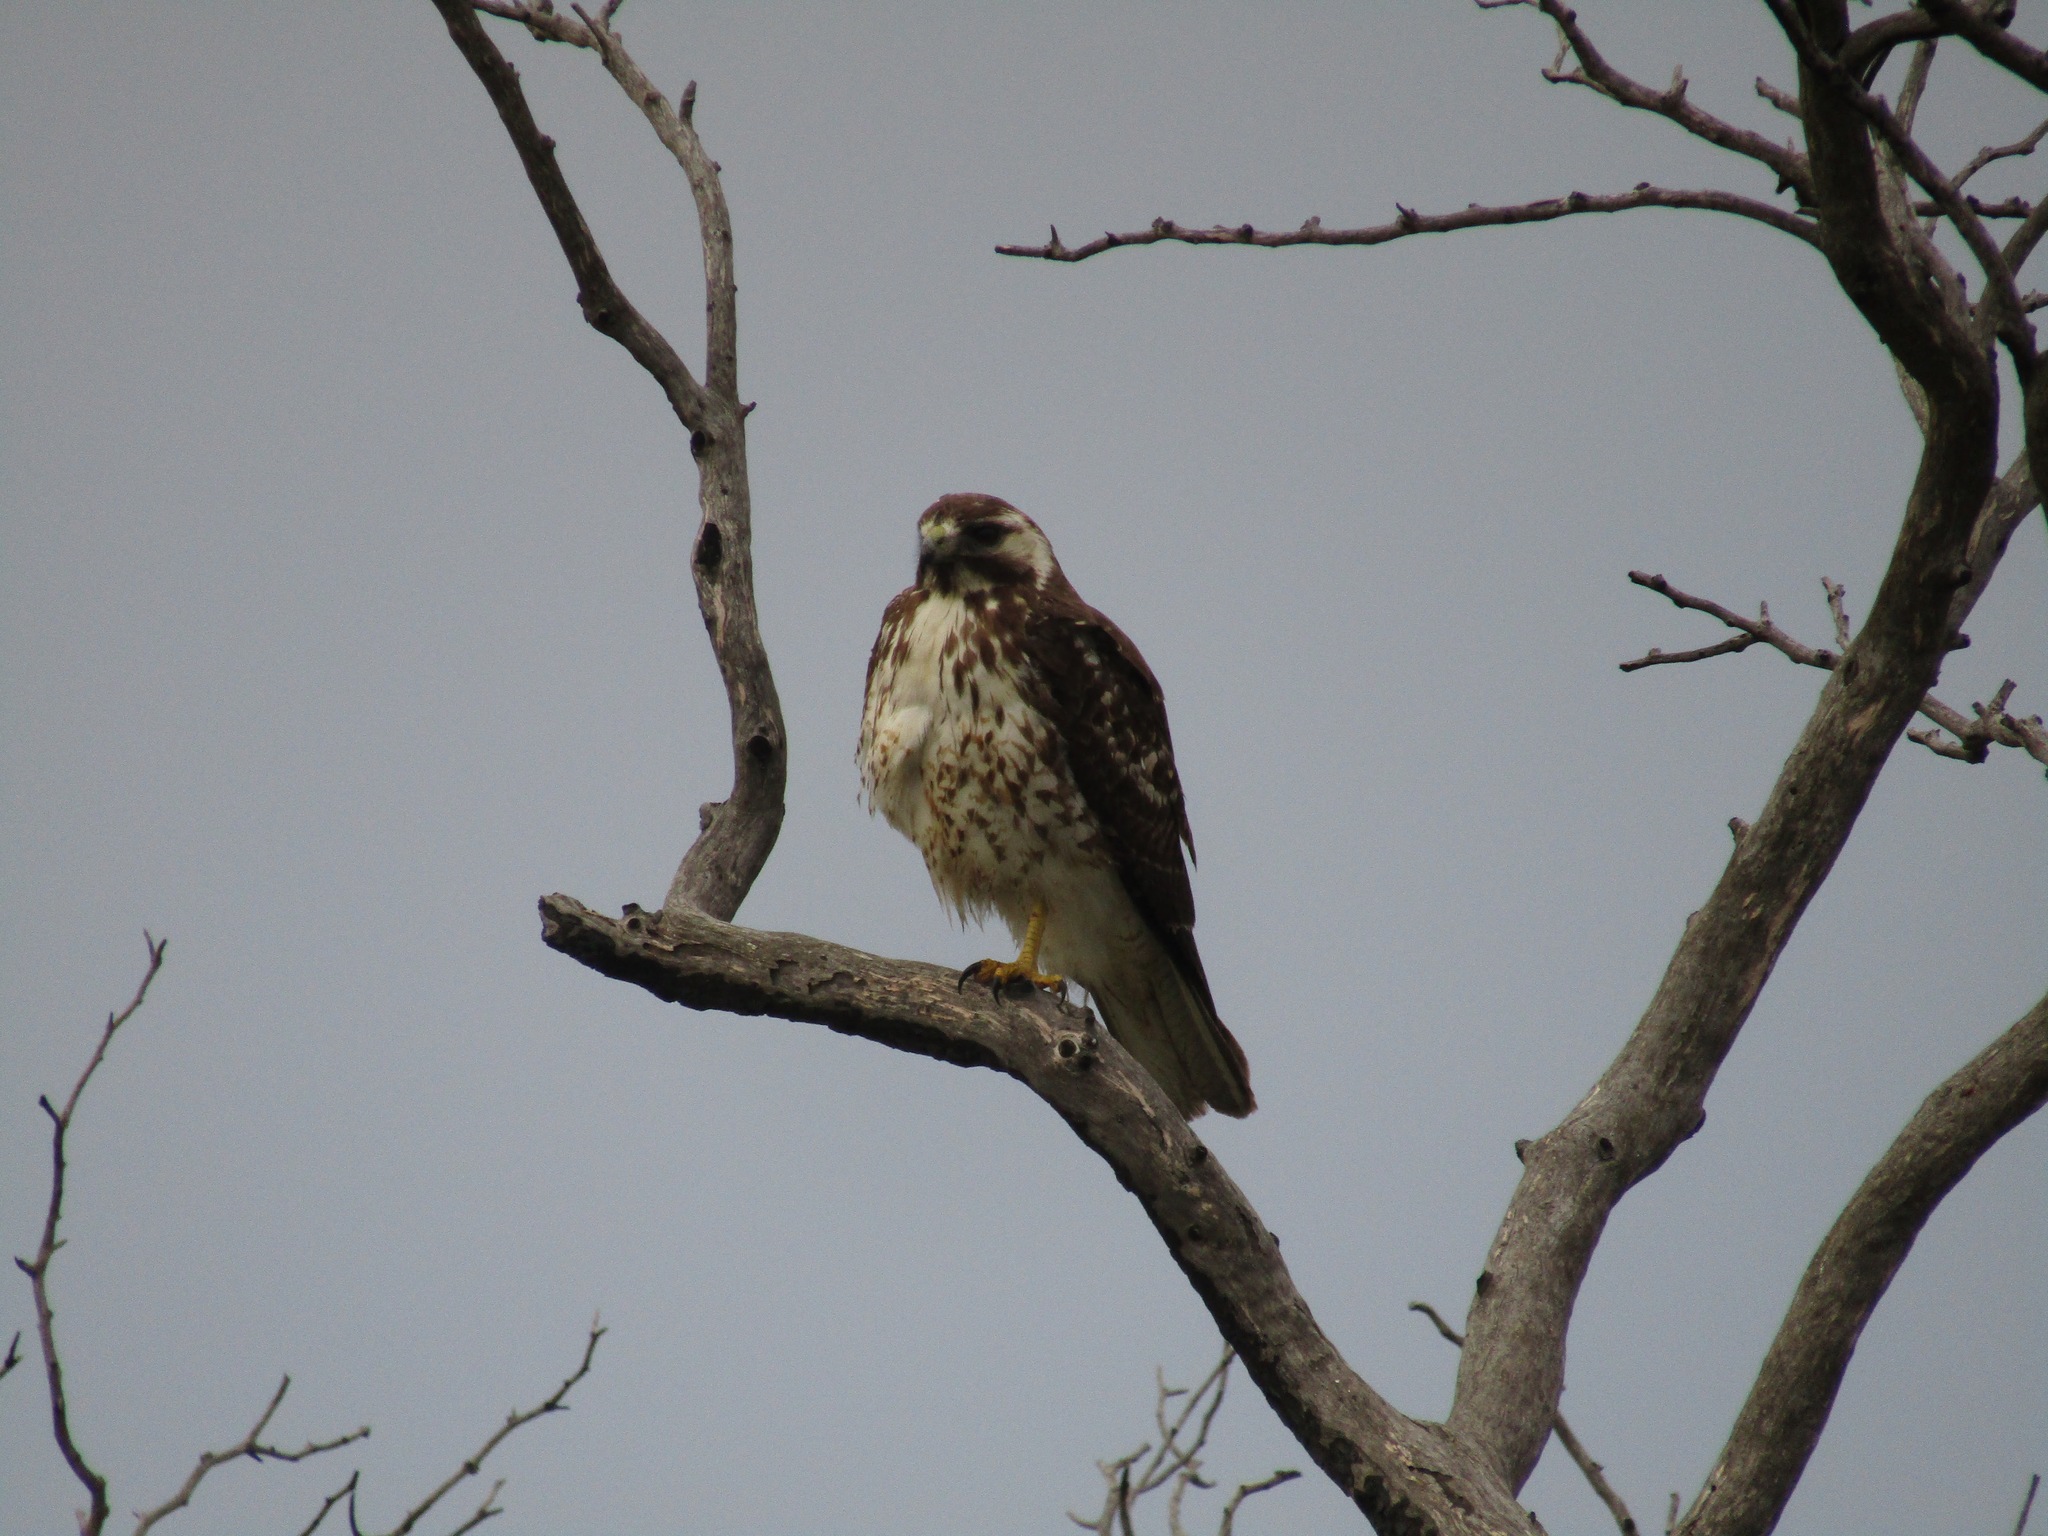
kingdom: Animalia
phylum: Chordata
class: Aves
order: Accipitriformes
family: Accipitridae
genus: Buteo
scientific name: Buteo polyosoma
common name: Variable hawk
